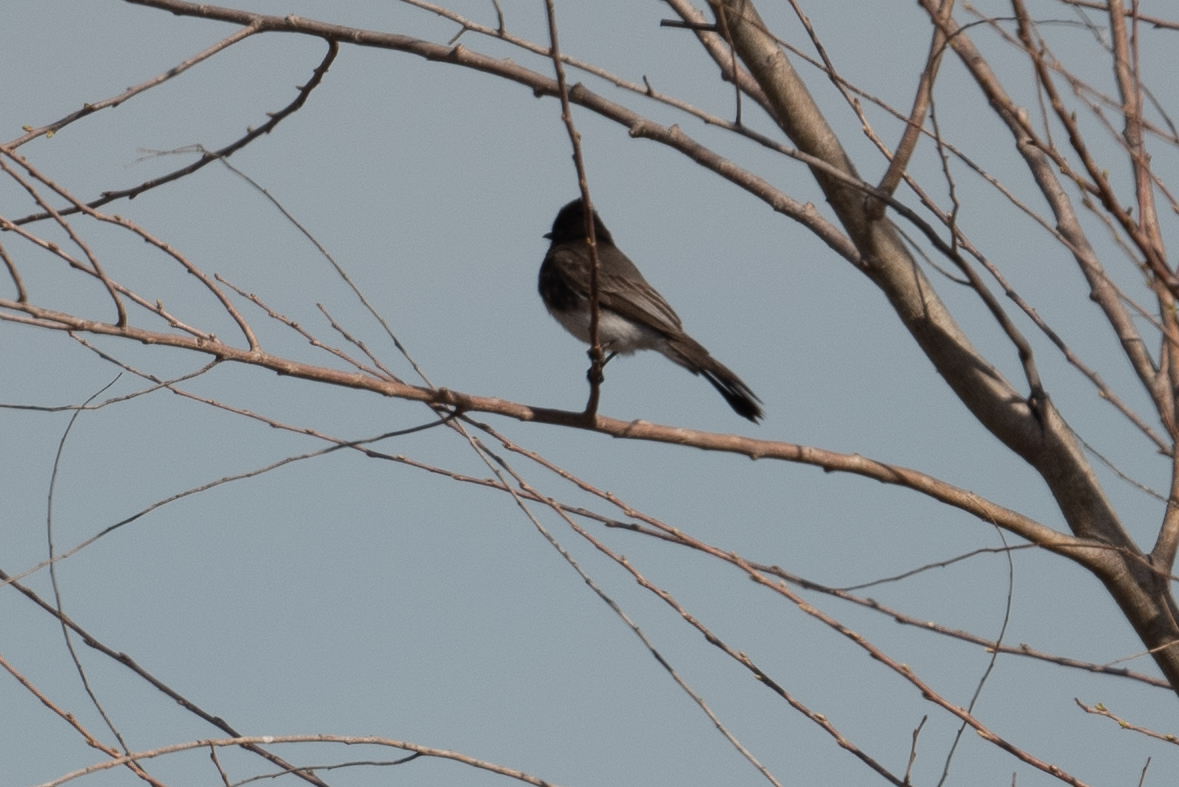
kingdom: Animalia
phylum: Chordata
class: Aves
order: Passeriformes
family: Tyrannidae
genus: Sayornis
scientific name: Sayornis nigricans
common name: Black phoebe
